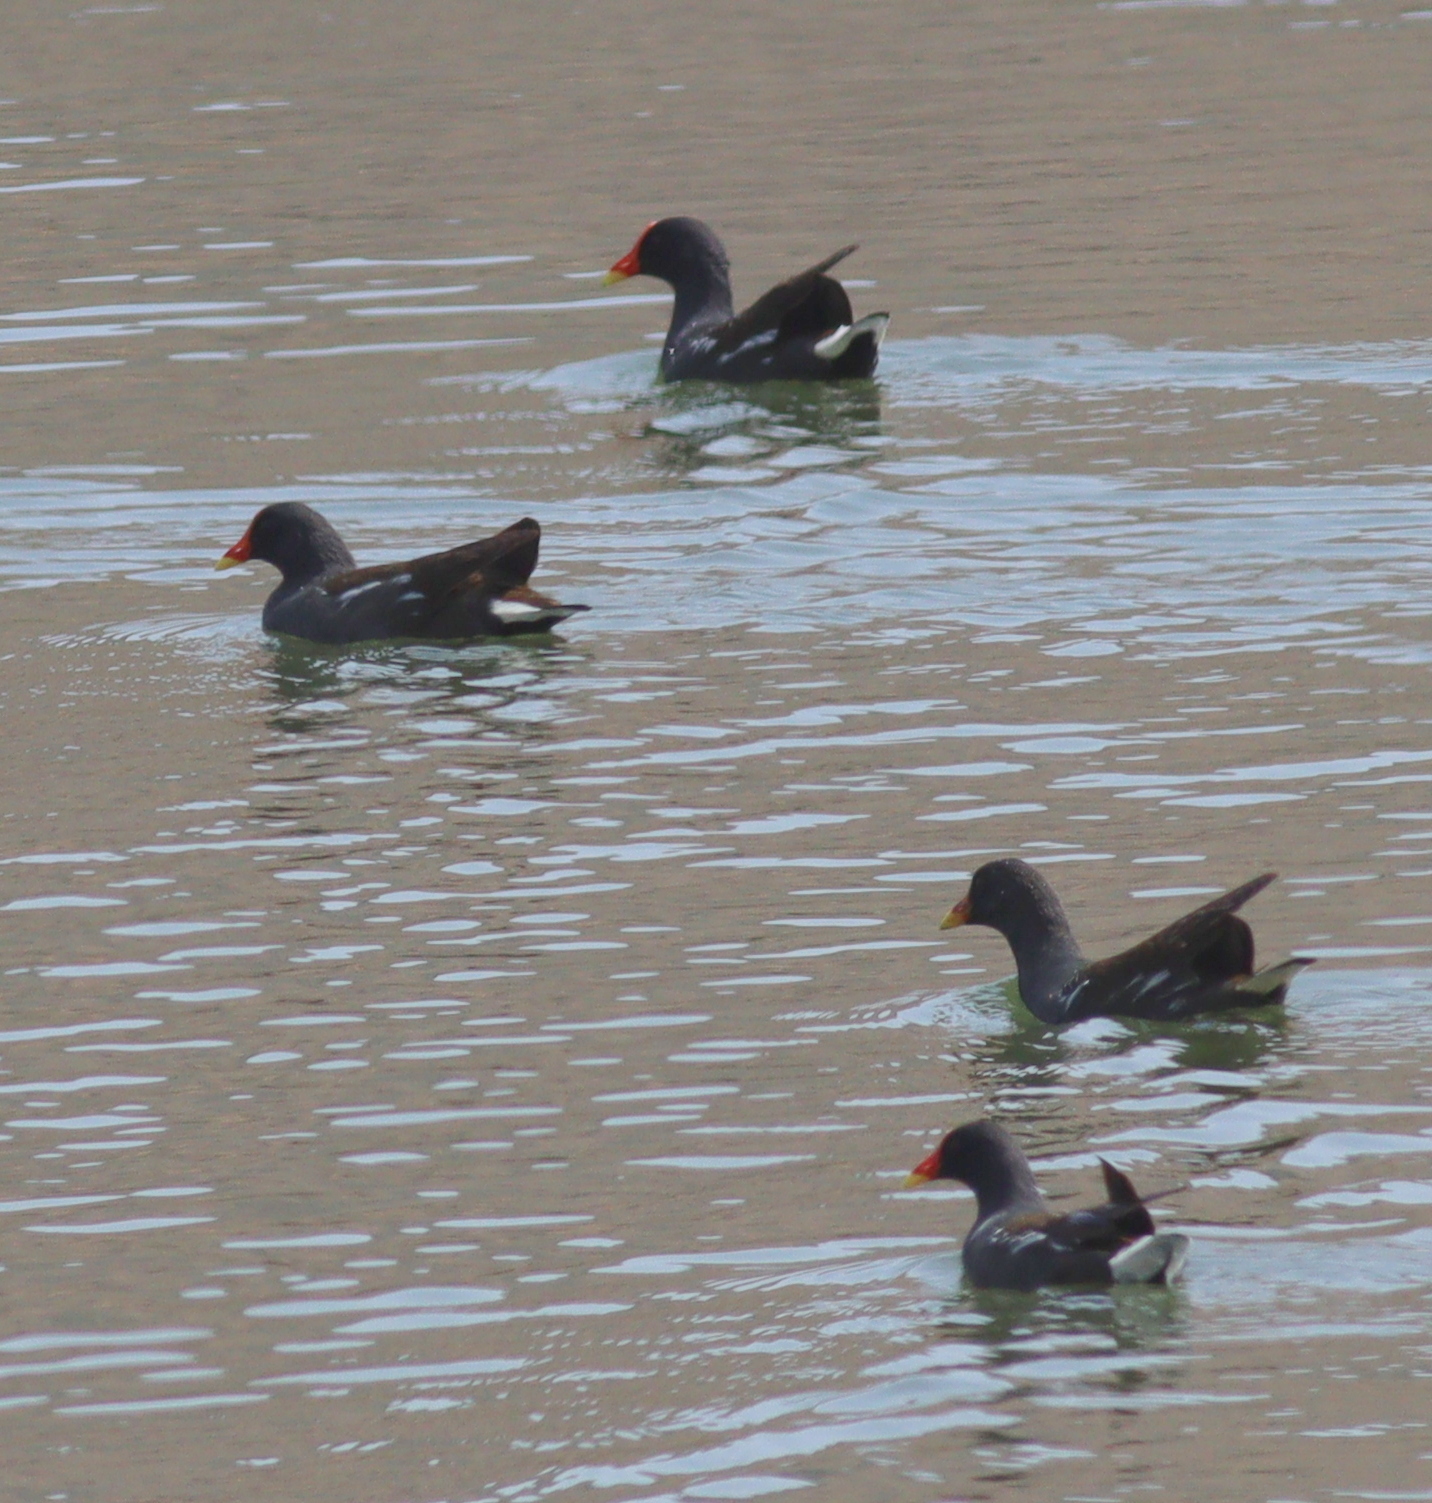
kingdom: Animalia
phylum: Chordata
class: Aves
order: Gruiformes
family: Rallidae
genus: Gallinula
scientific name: Gallinula chloropus
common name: Common moorhen
